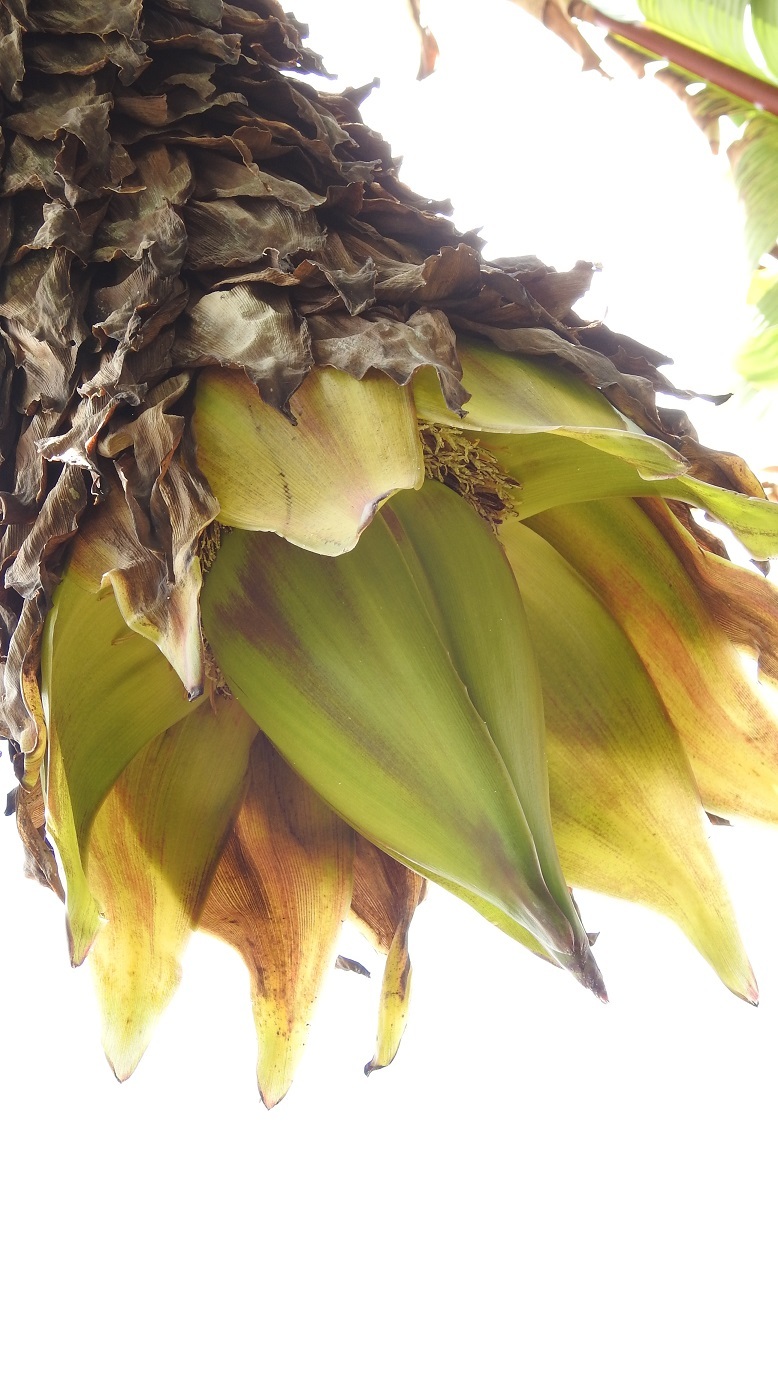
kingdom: Plantae
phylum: Tracheophyta
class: Liliopsida
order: Zingiberales
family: Musaceae
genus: Ensete
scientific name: Ensete ventricosum
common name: Abyssinian banana
